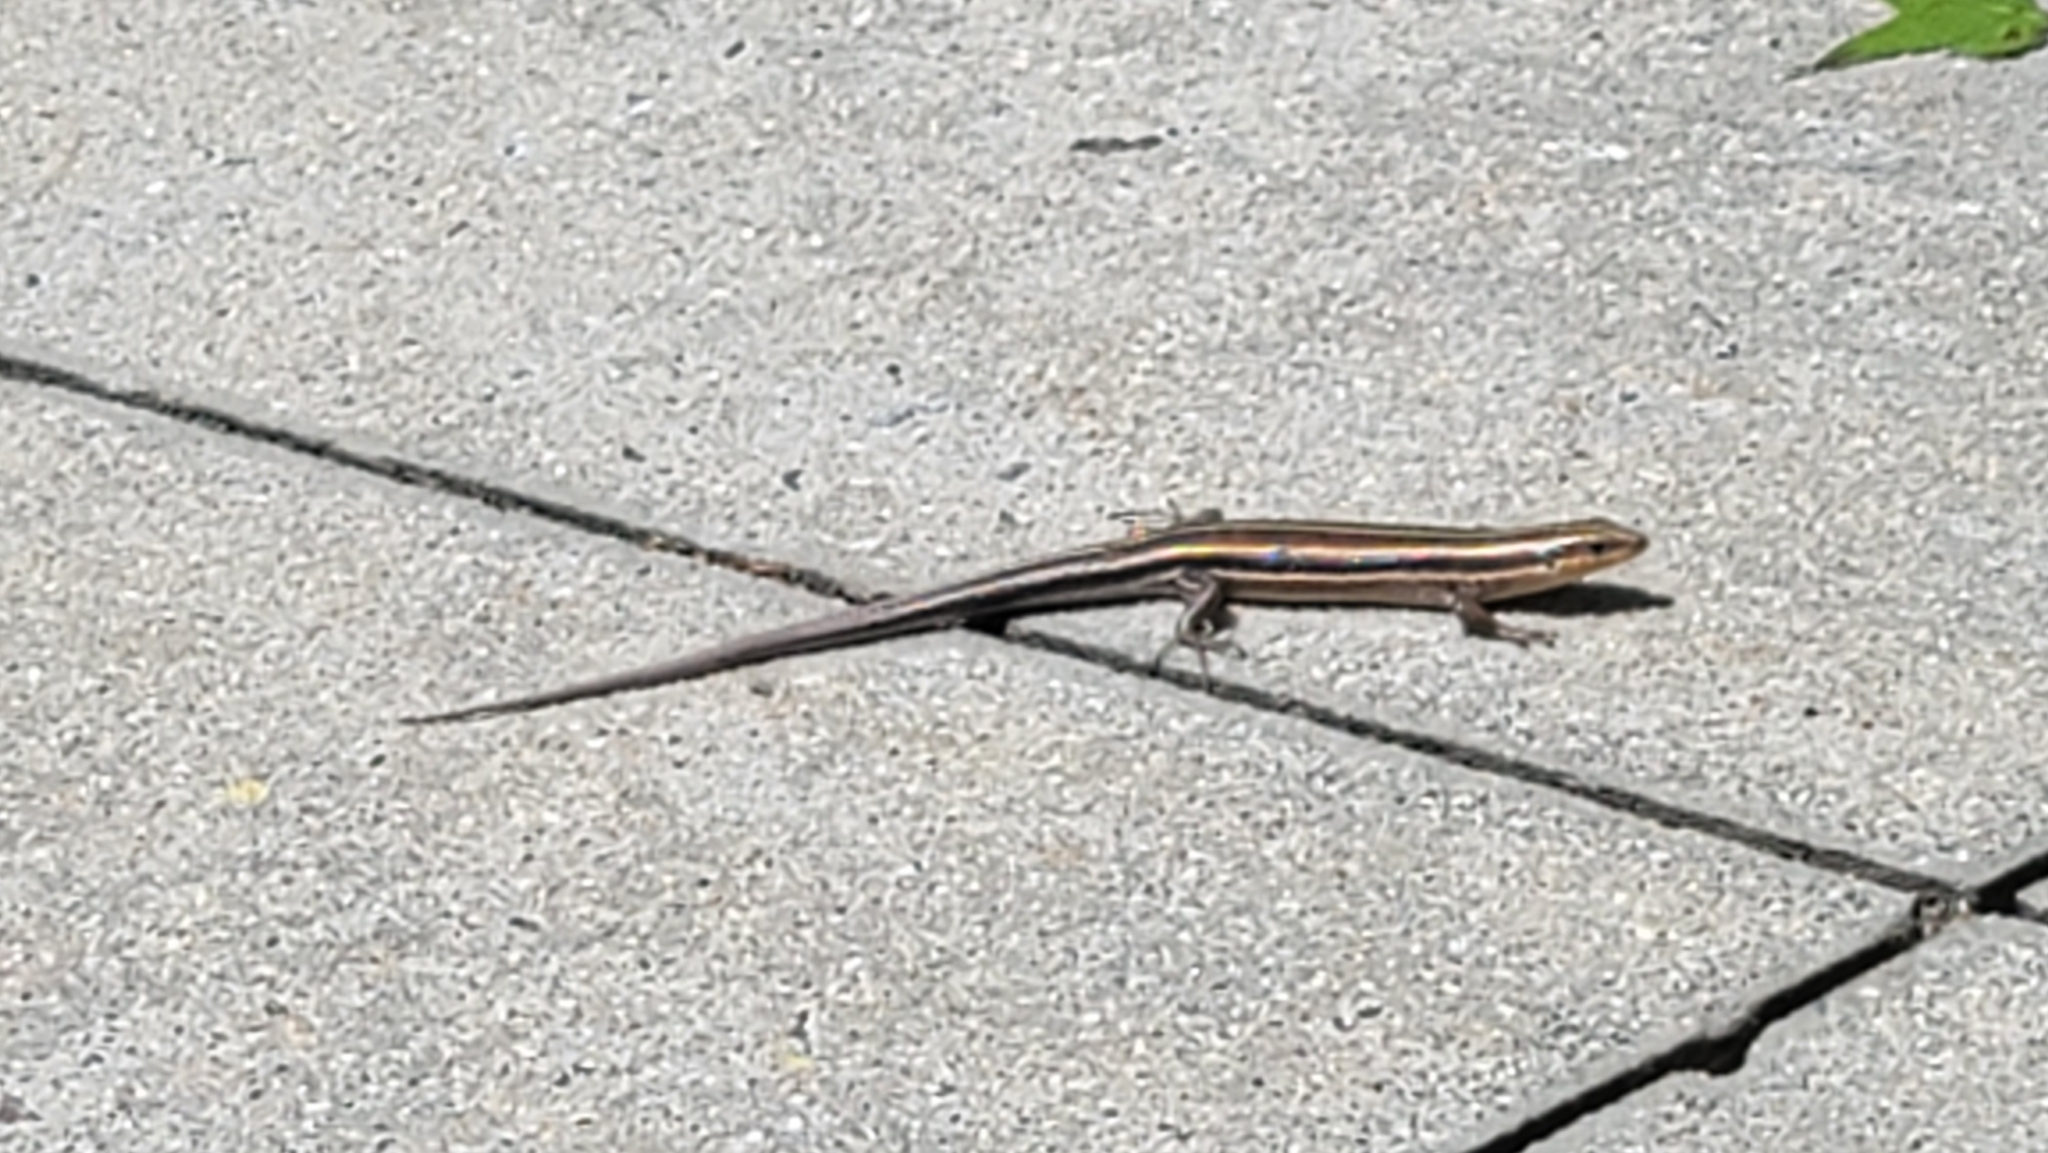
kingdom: Animalia
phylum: Chordata
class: Squamata
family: Scincidae
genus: Plestiodon
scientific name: Plestiodon fasciatus
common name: Five-lined skink
